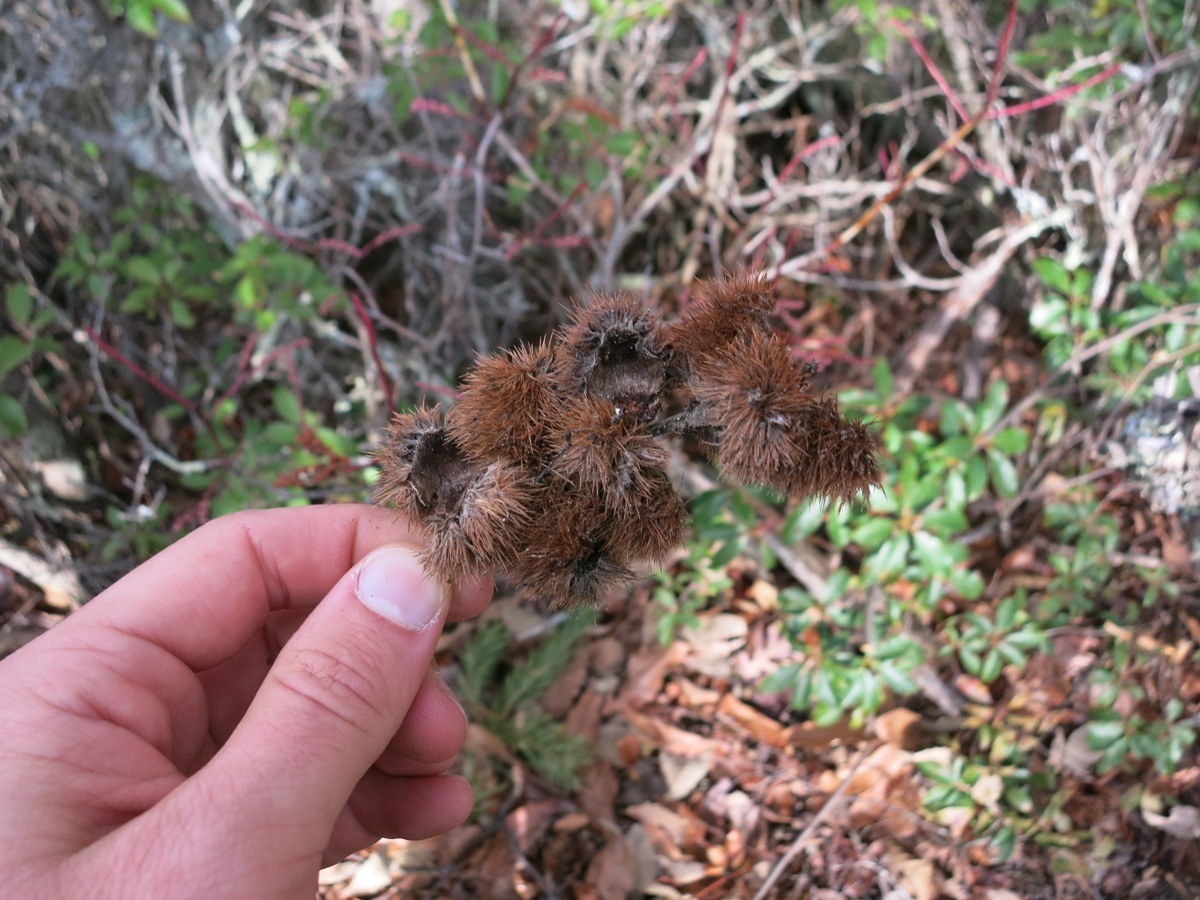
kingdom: Plantae
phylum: Tracheophyta
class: Magnoliopsida
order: Fagales
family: Fagaceae
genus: Castanea
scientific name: Castanea pumila
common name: Chinkapin
